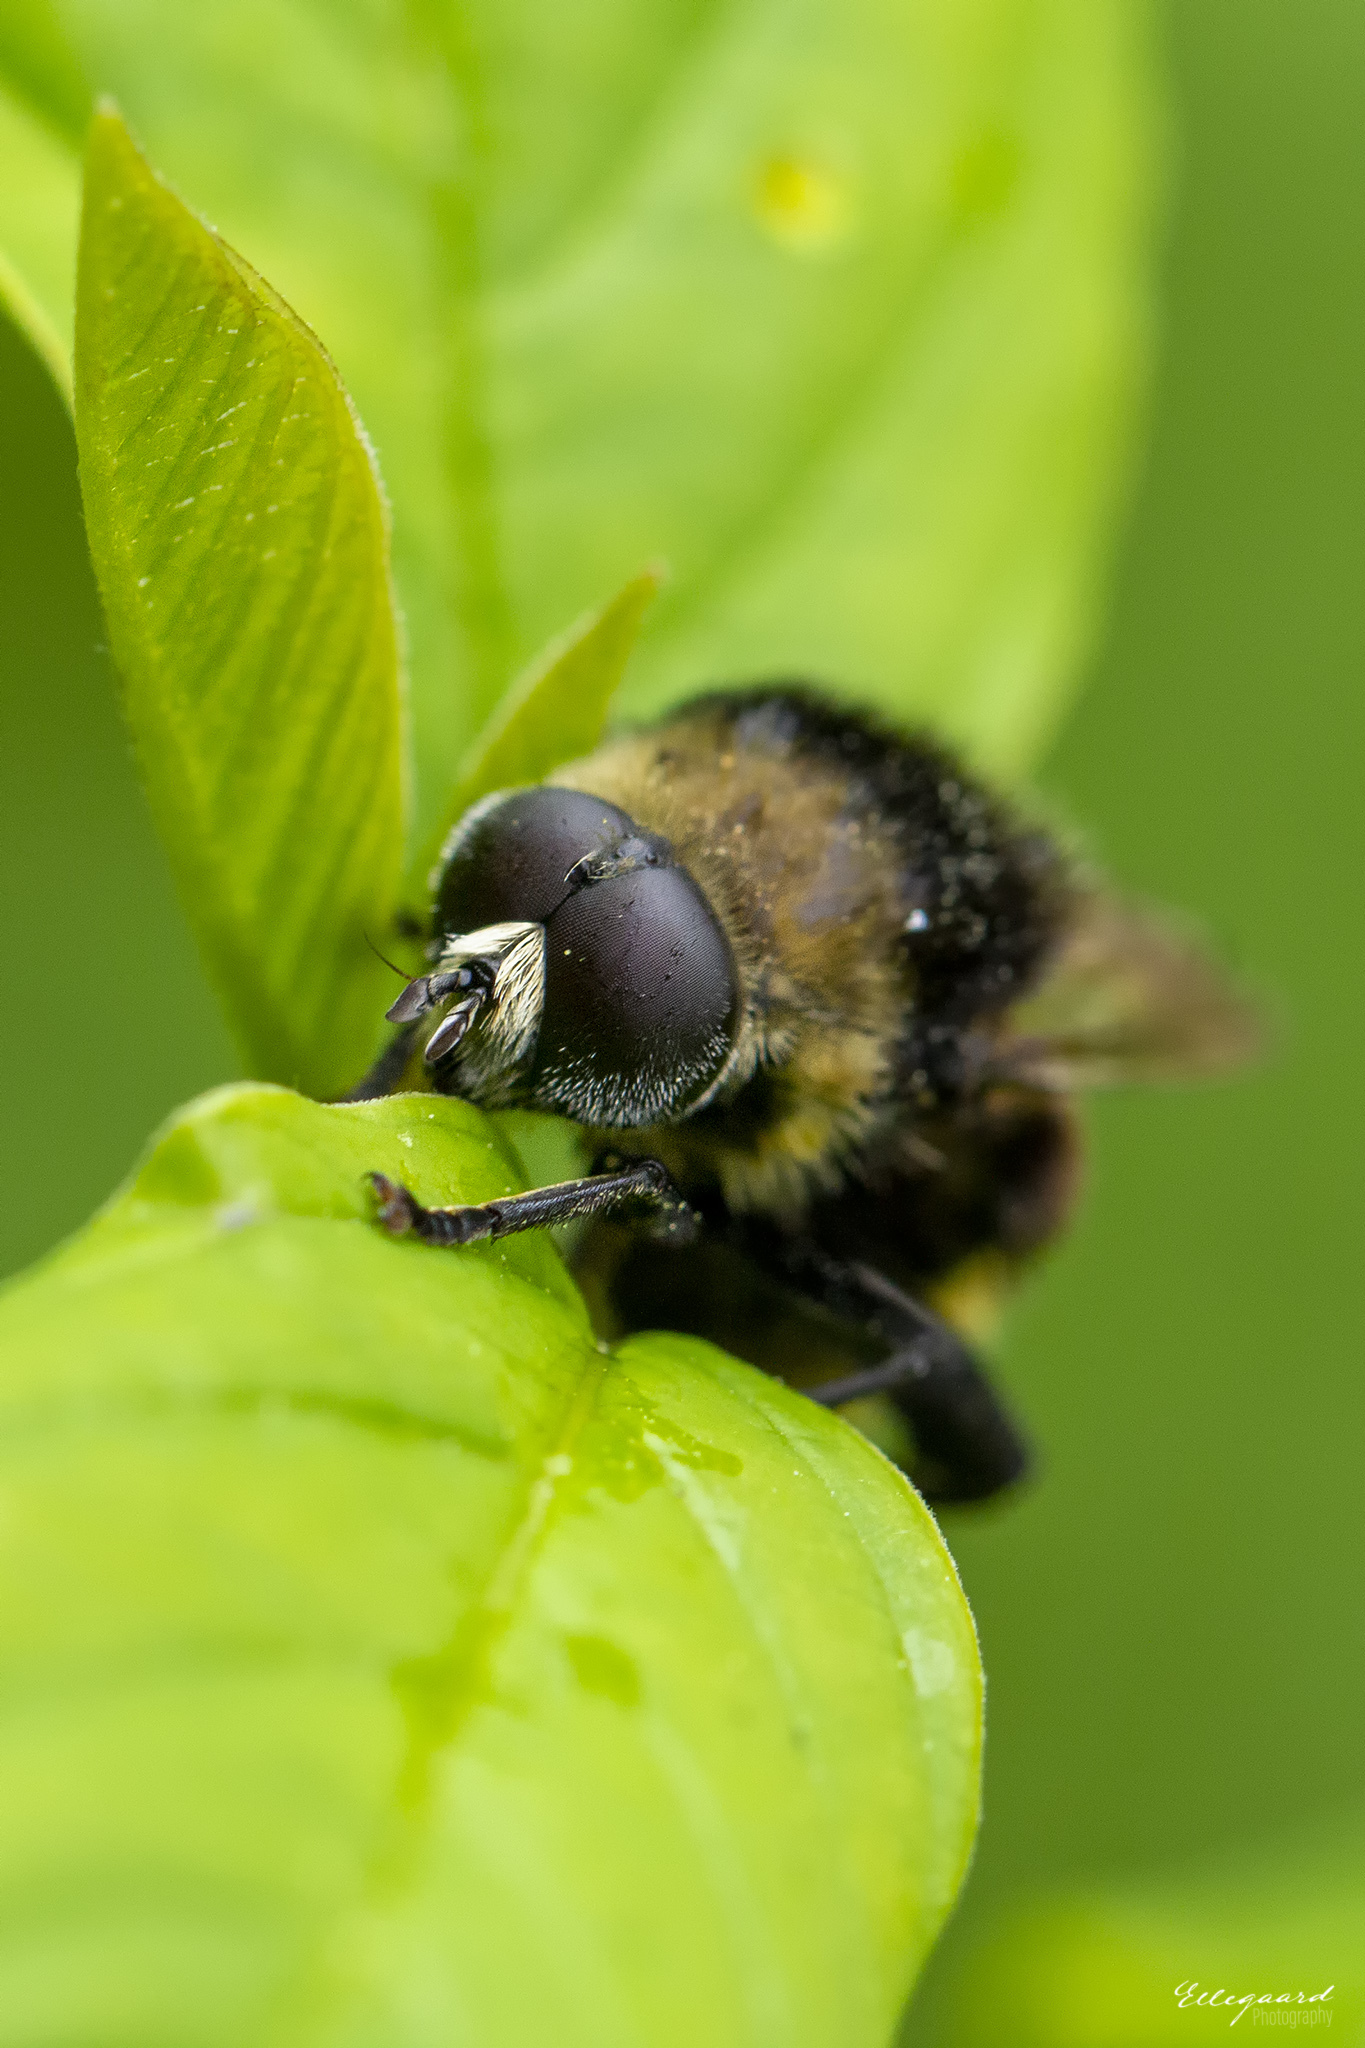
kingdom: Animalia
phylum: Arthropoda
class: Insecta
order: Diptera
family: Syrphidae
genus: Merodon
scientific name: Merodon equestris
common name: Greater bulb-fly
